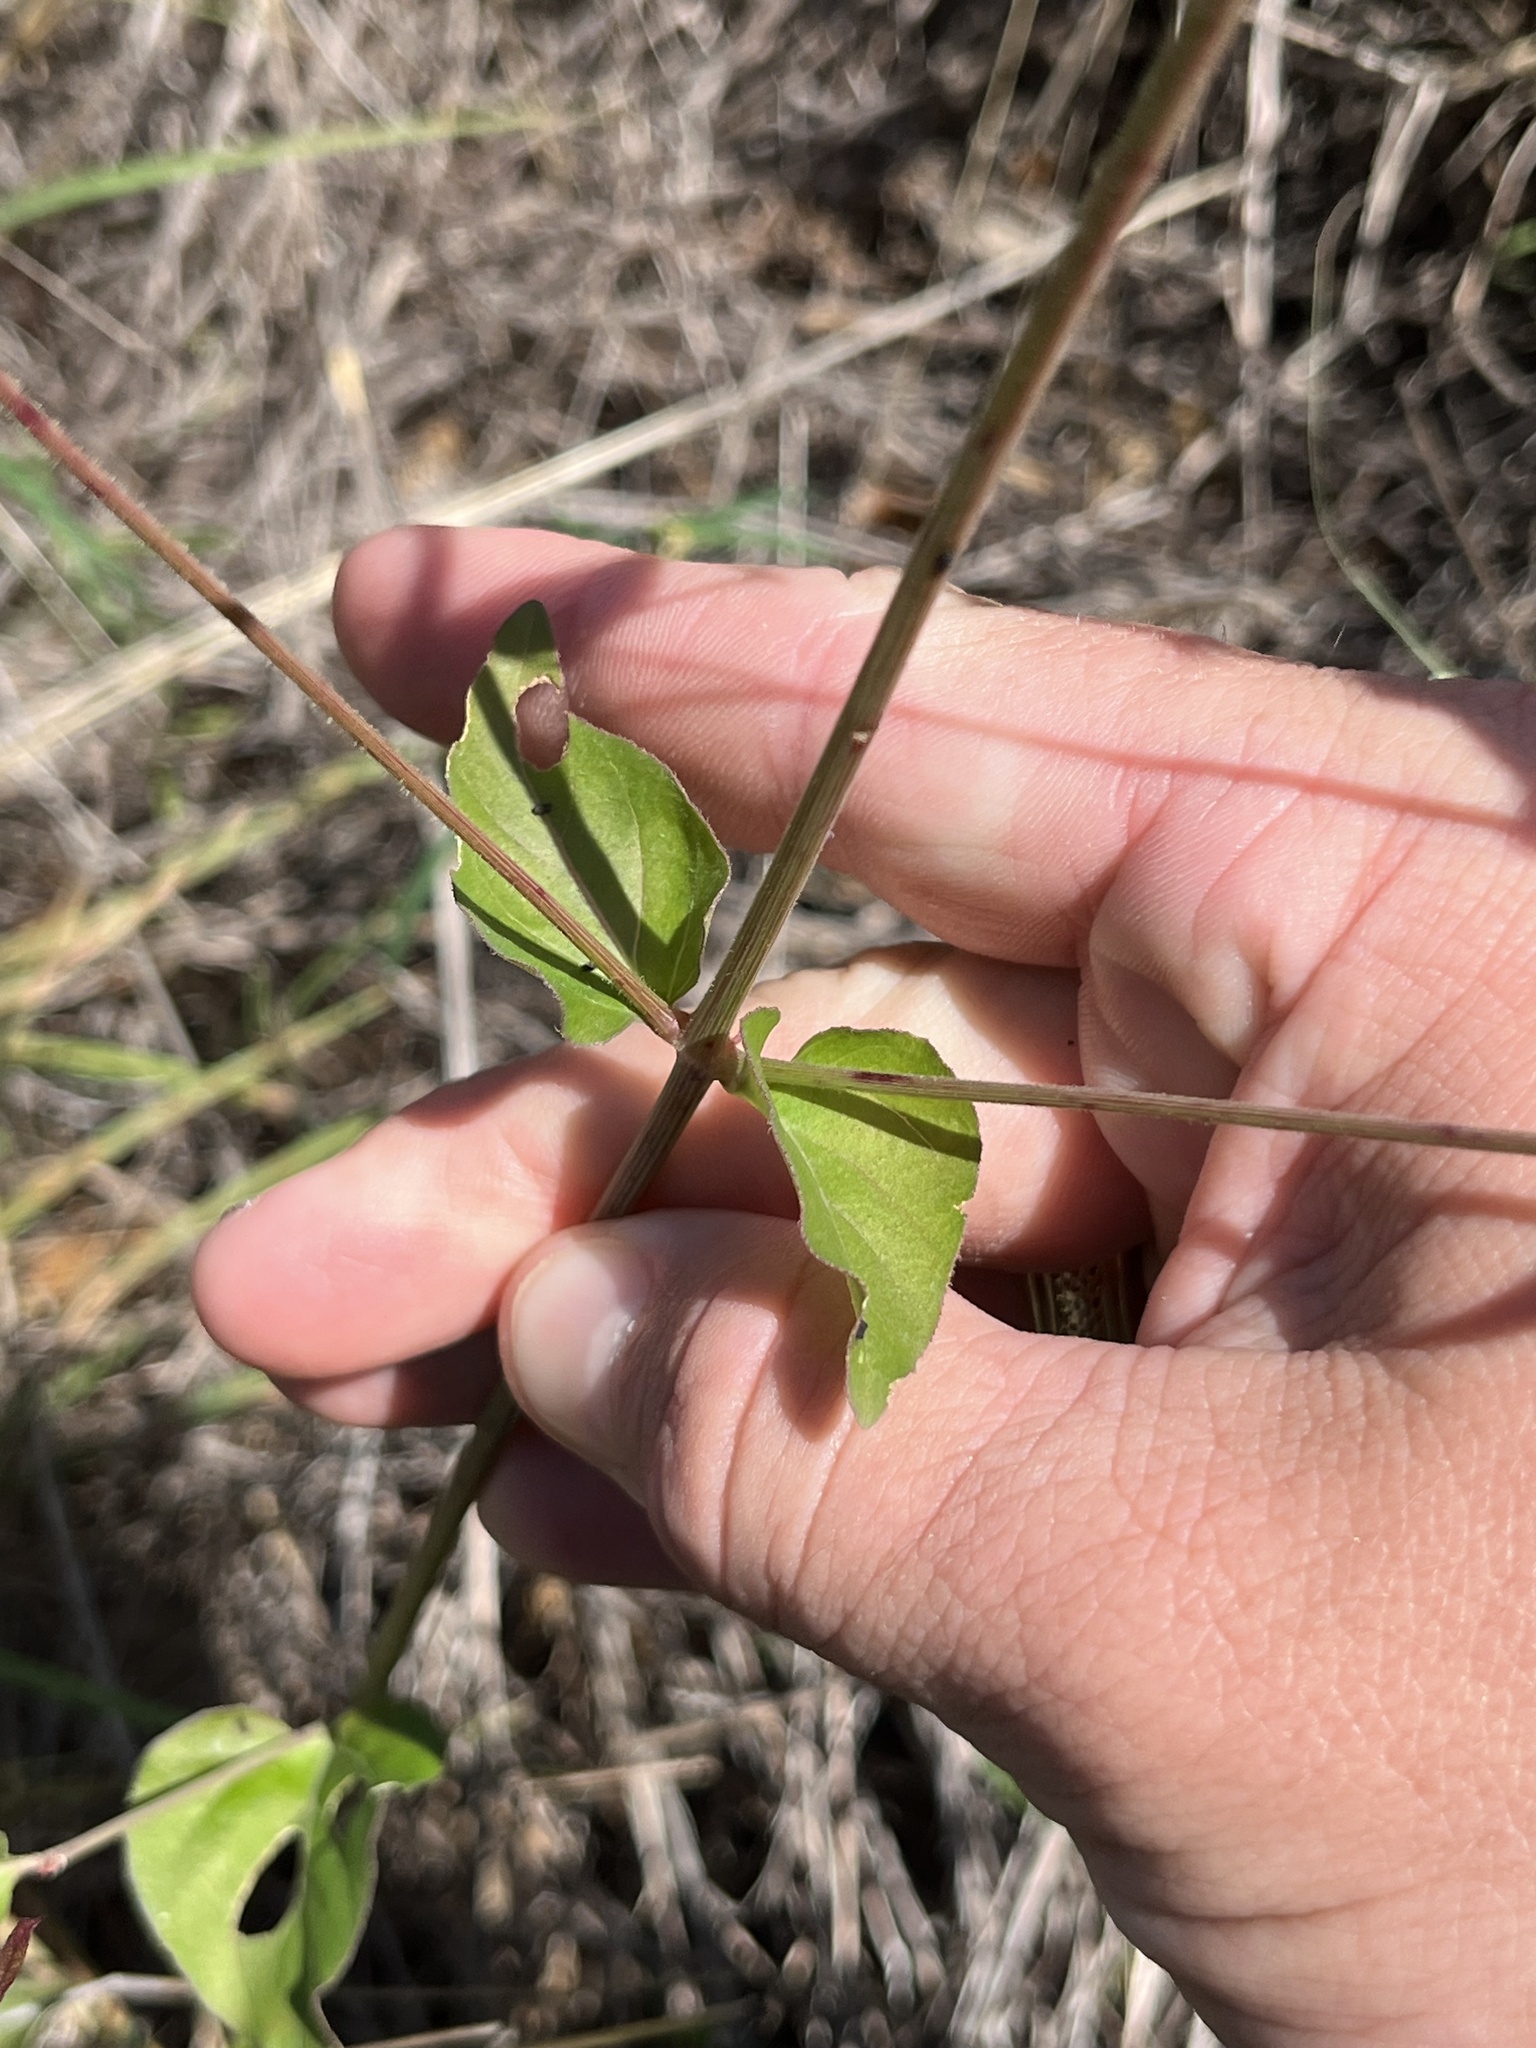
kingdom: Plantae
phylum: Tracheophyta
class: Magnoliopsida
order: Caryophyllales
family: Nyctaginaceae
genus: Mirabilis
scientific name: Mirabilis albida
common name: Hairy four-o'clock
